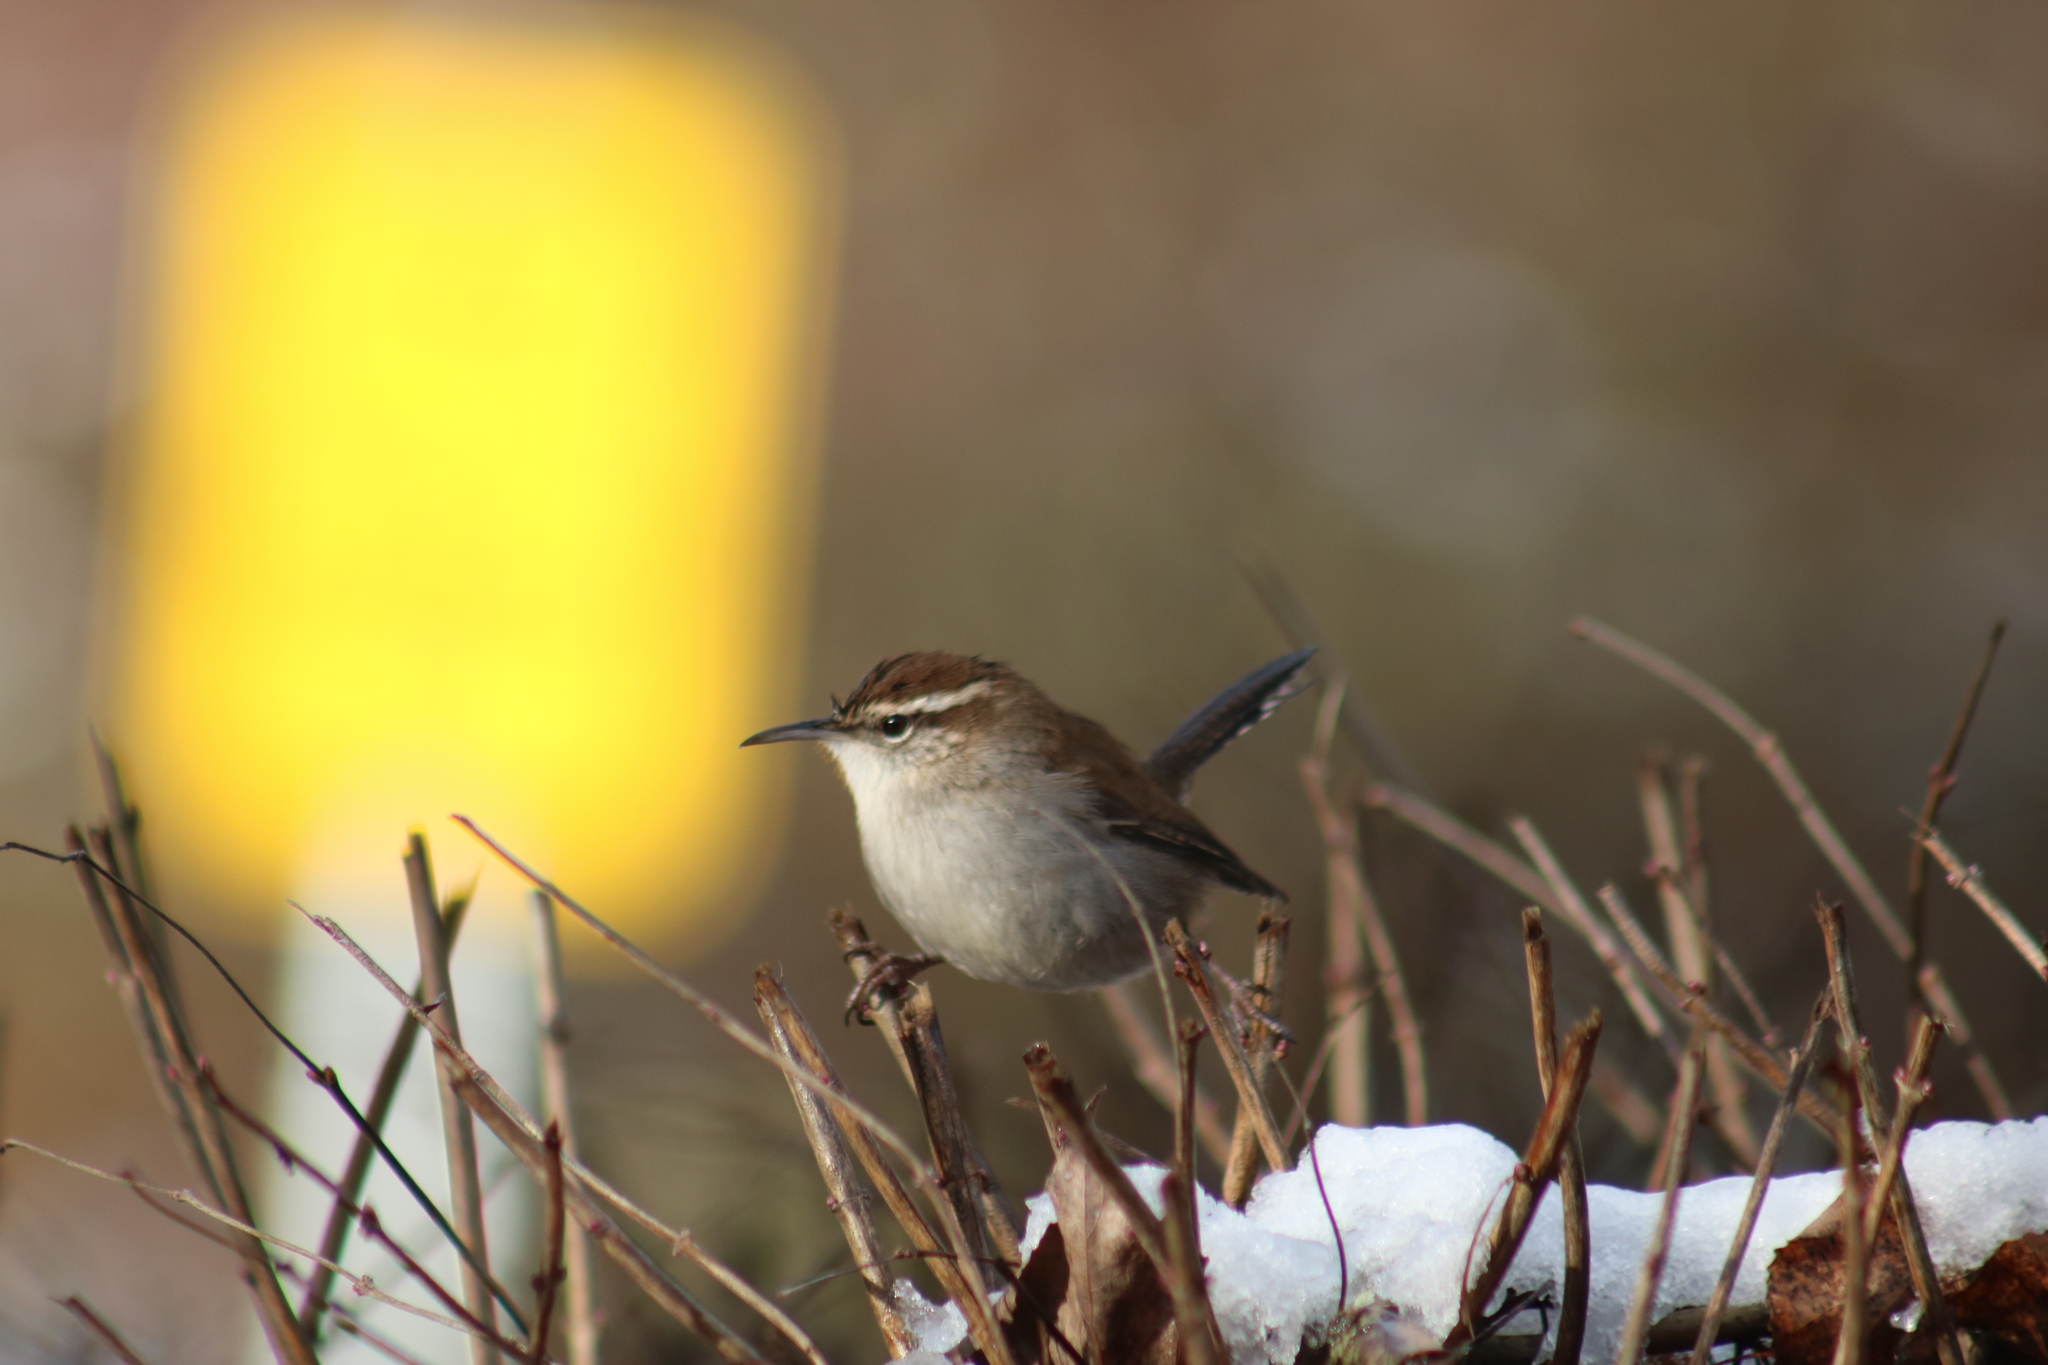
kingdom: Animalia
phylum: Chordata
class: Aves
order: Passeriformes
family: Troglodytidae
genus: Thryomanes
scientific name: Thryomanes bewickii
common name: Bewick's wren
